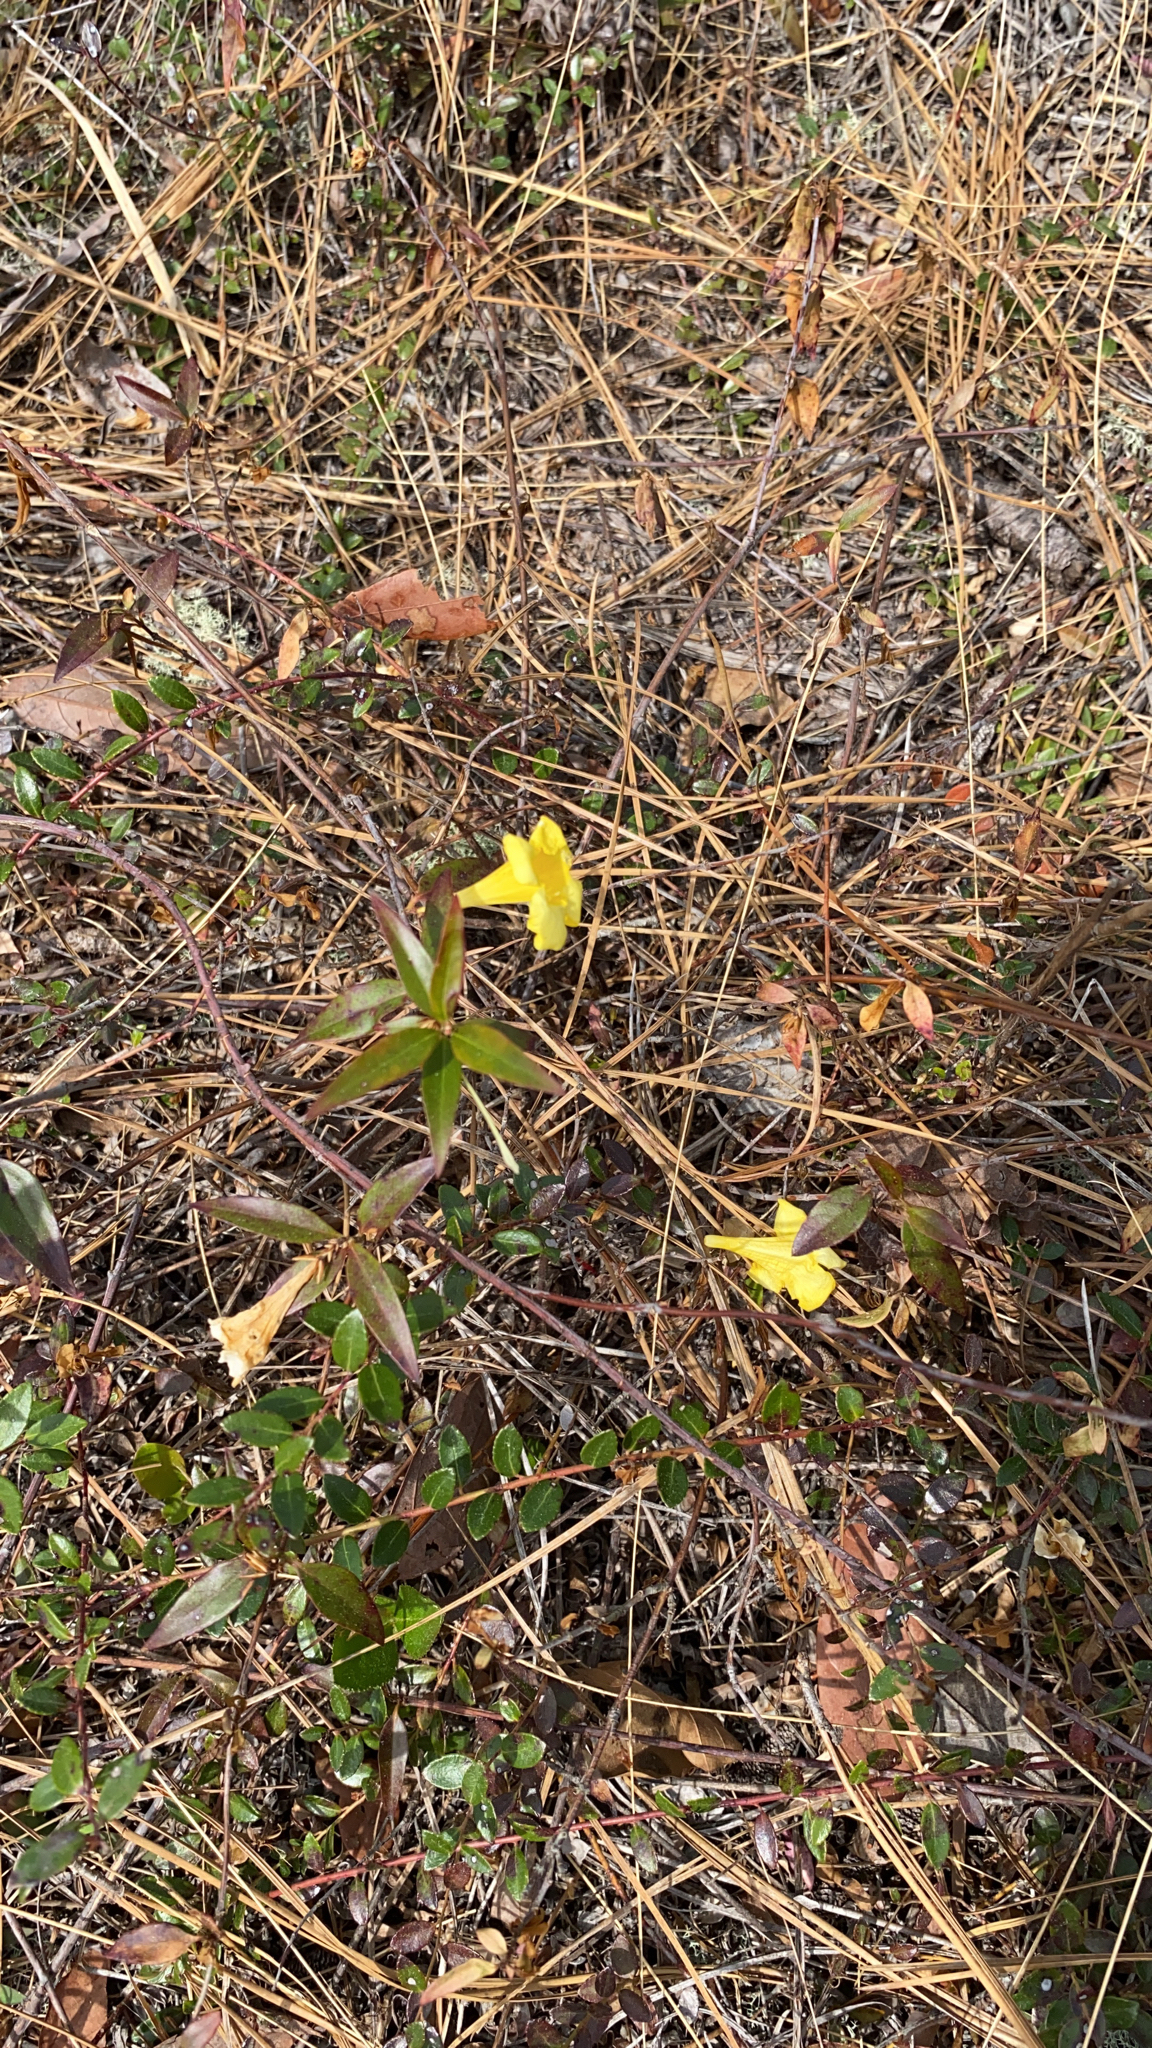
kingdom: Plantae
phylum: Tracheophyta
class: Magnoliopsida
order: Gentianales
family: Gelsemiaceae
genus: Gelsemium
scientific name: Gelsemium sempervirens
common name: Carolina-jasmine
